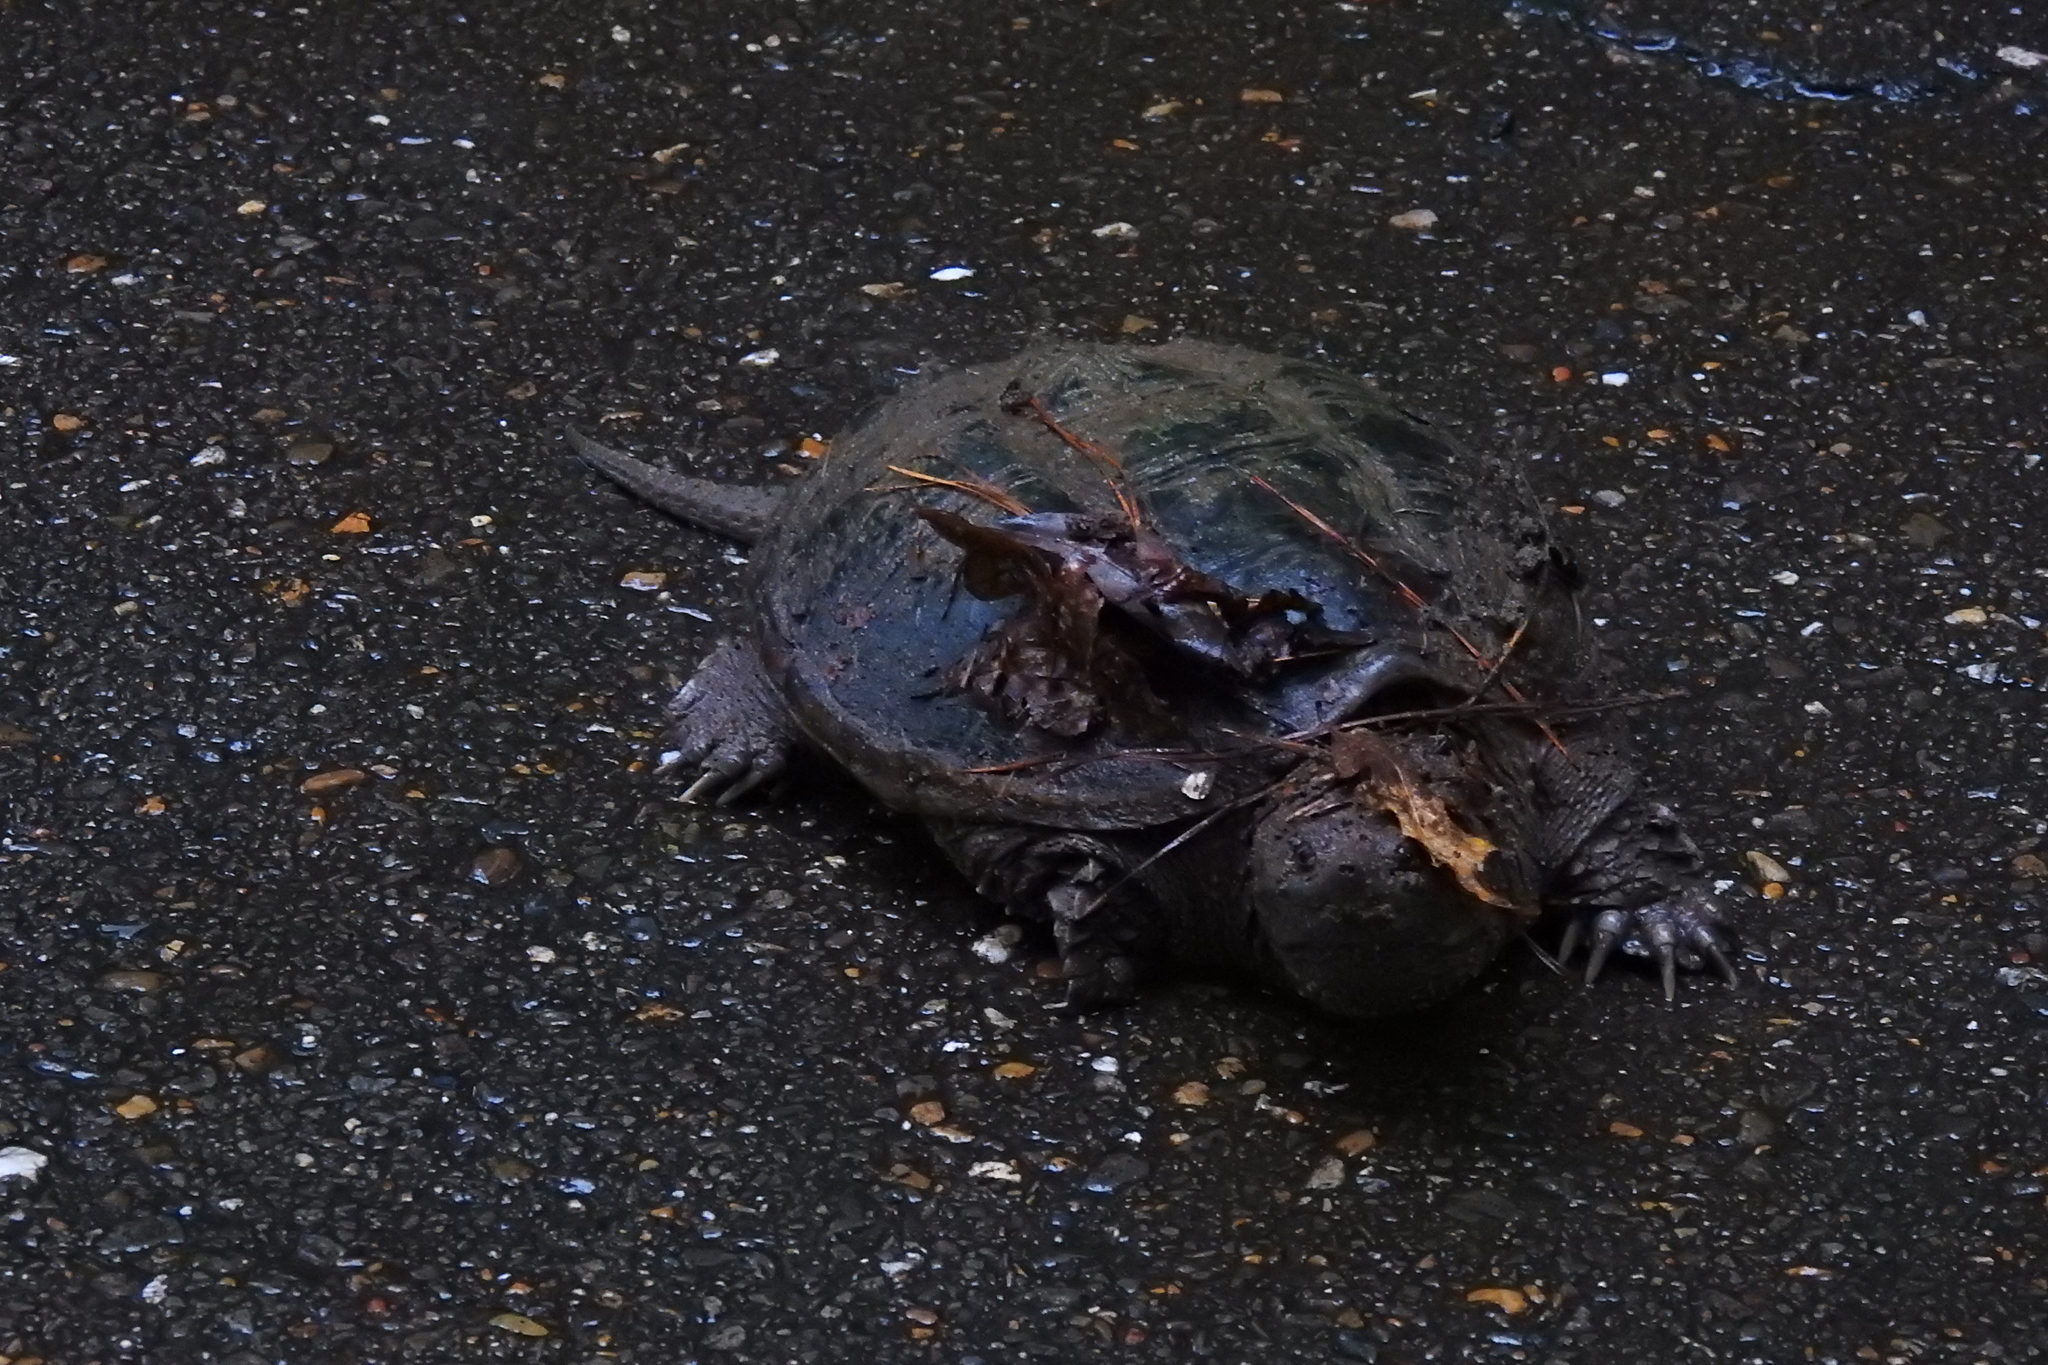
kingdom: Animalia
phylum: Chordata
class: Testudines
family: Chelydridae
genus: Chelydra
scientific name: Chelydra serpentina
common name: Common snapping turtle
